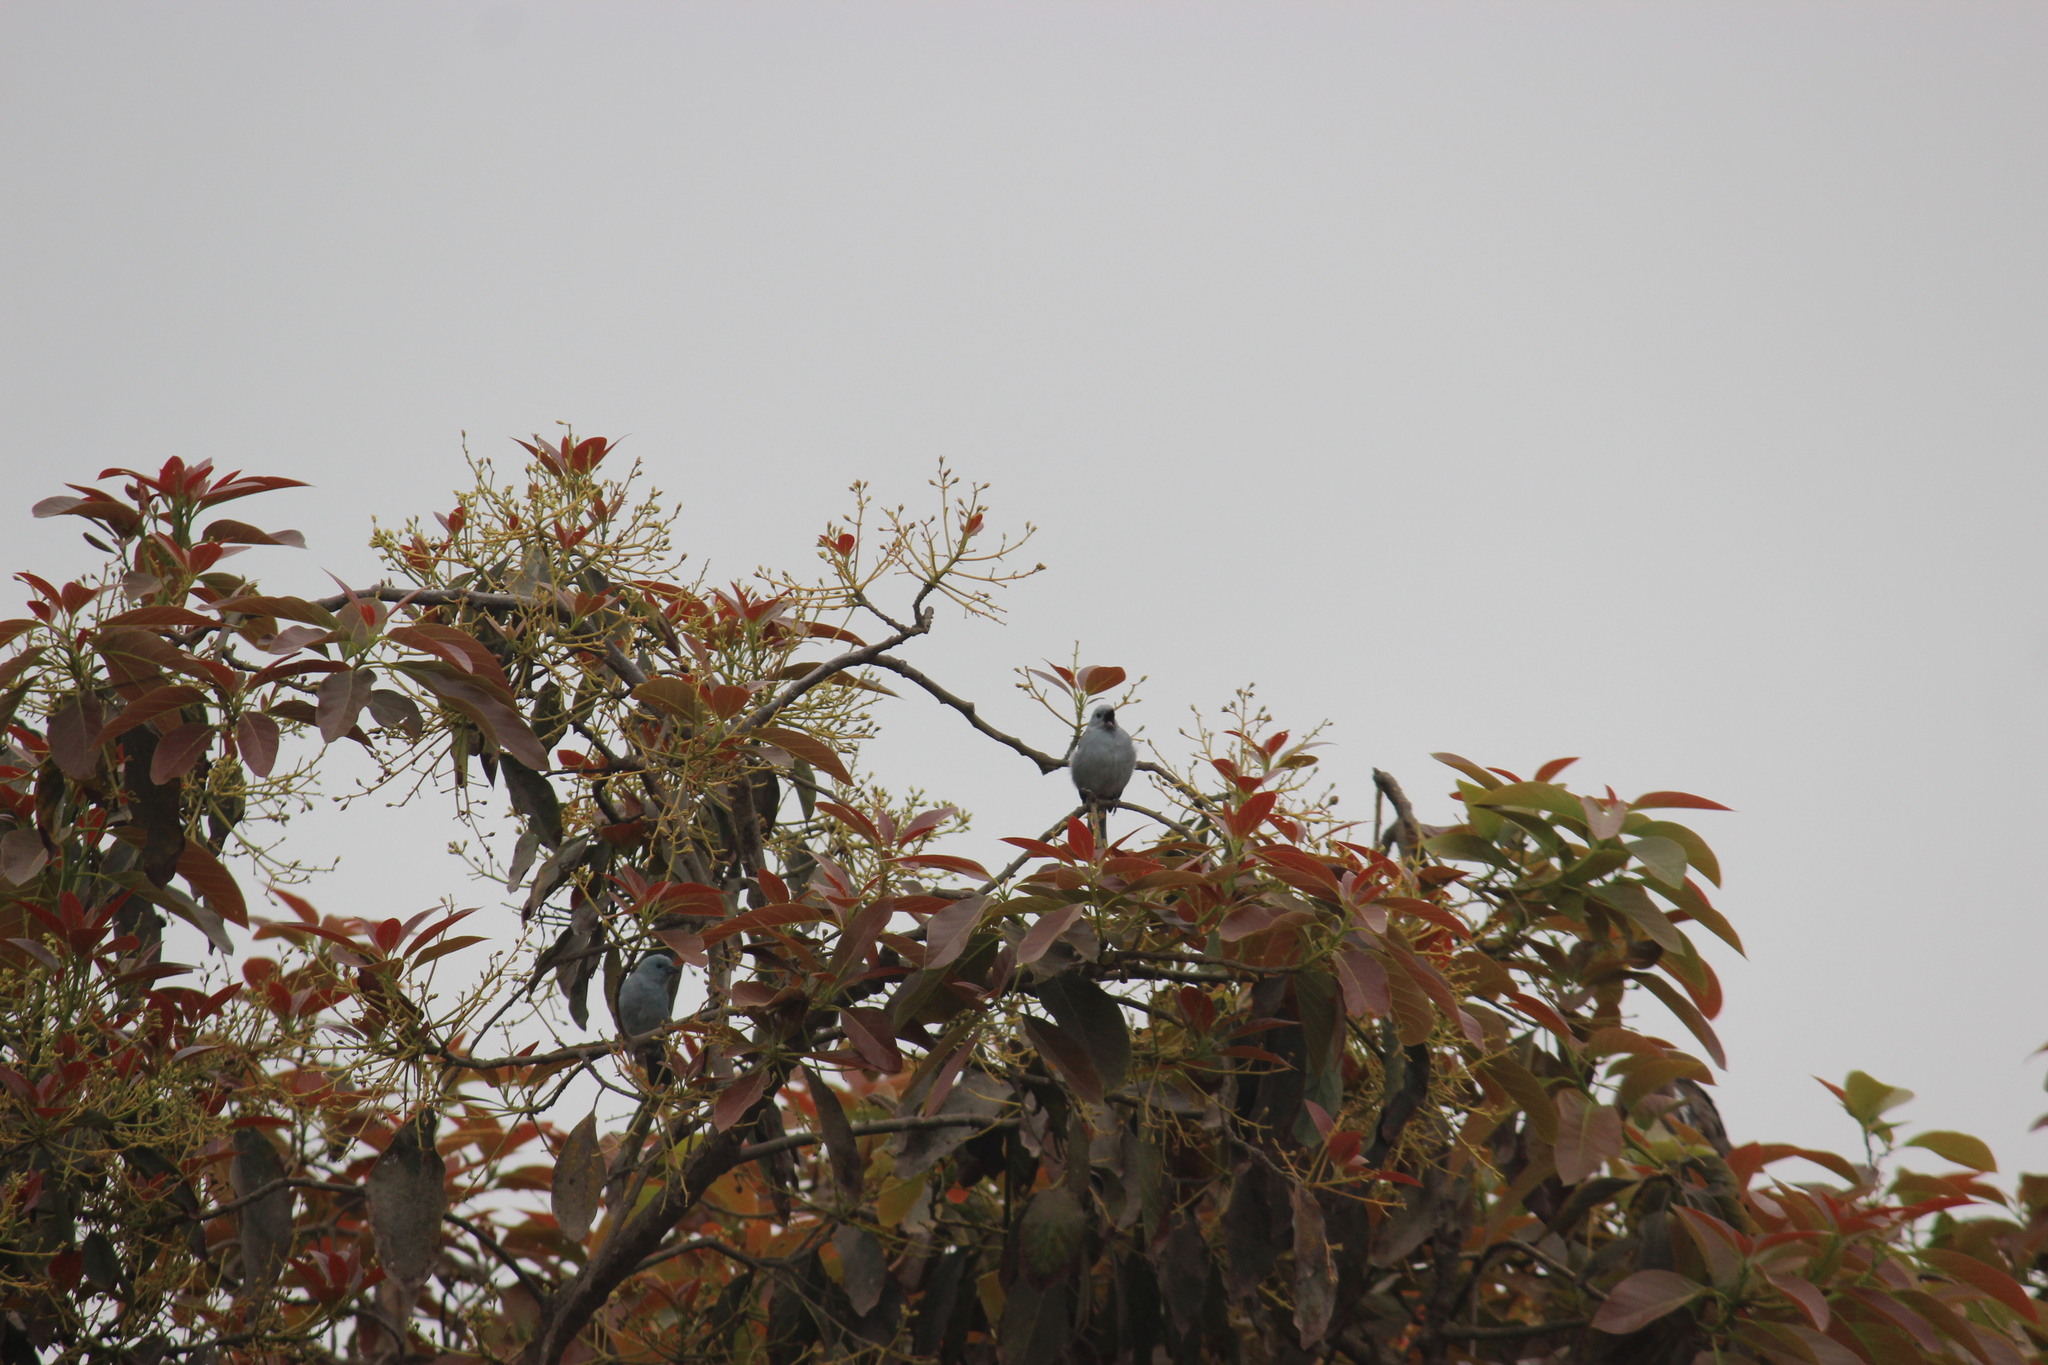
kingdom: Animalia
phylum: Chordata
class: Aves
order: Passeriformes
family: Thraupidae
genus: Thraupis
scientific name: Thraupis episcopus
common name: Blue-grey tanager
